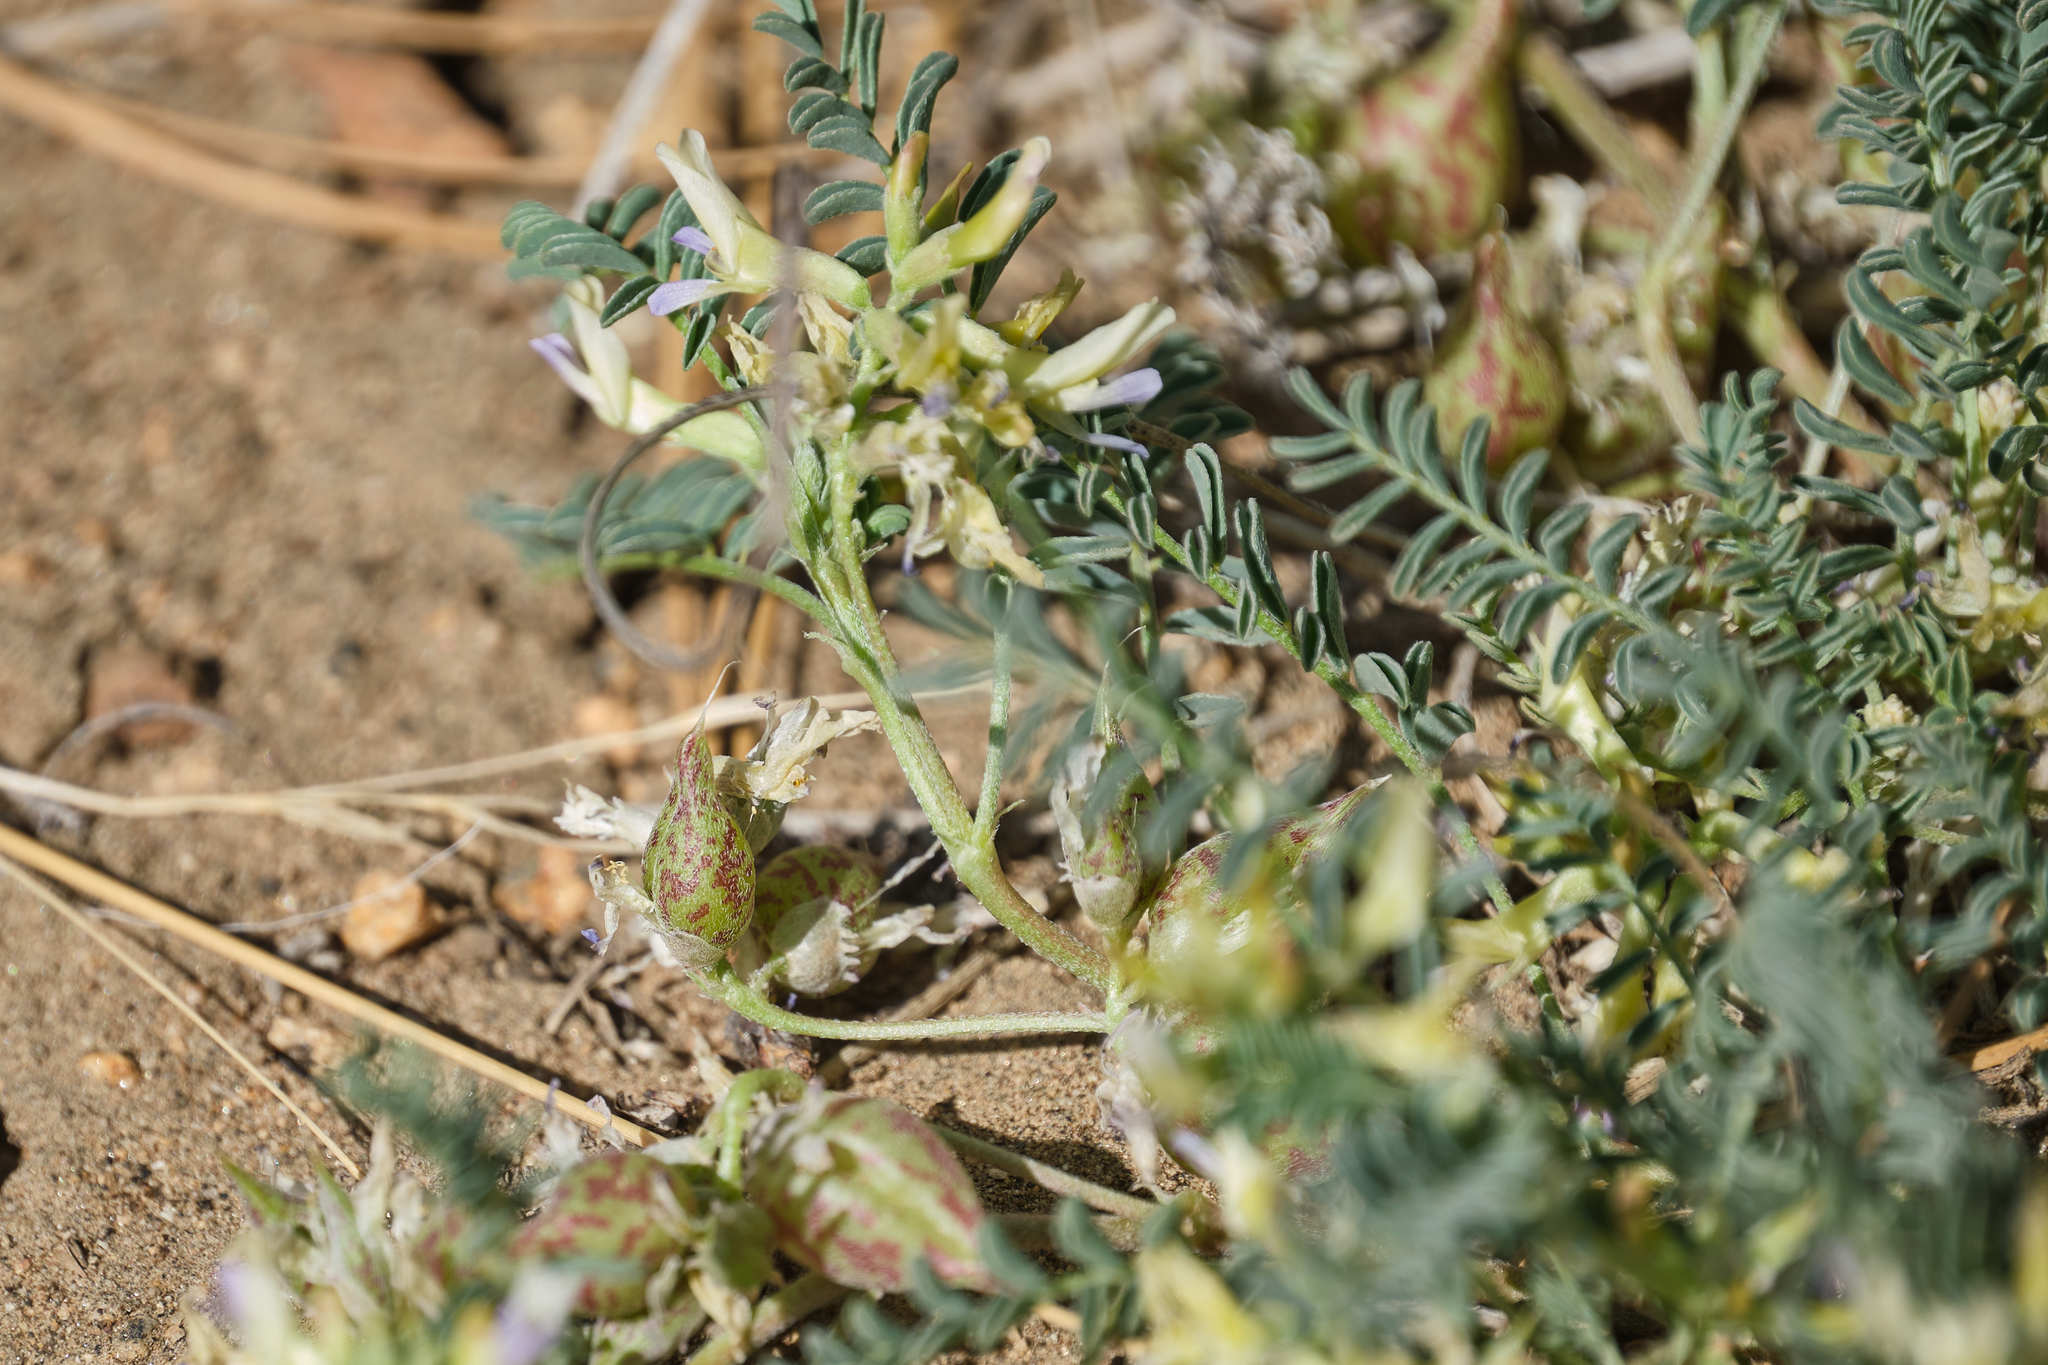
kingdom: Plantae
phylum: Tracheophyta
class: Magnoliopsida
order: Fabales
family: Fabaceae
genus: Astragalus
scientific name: Astragalus lentiginosus
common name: Freckled milkvetch
